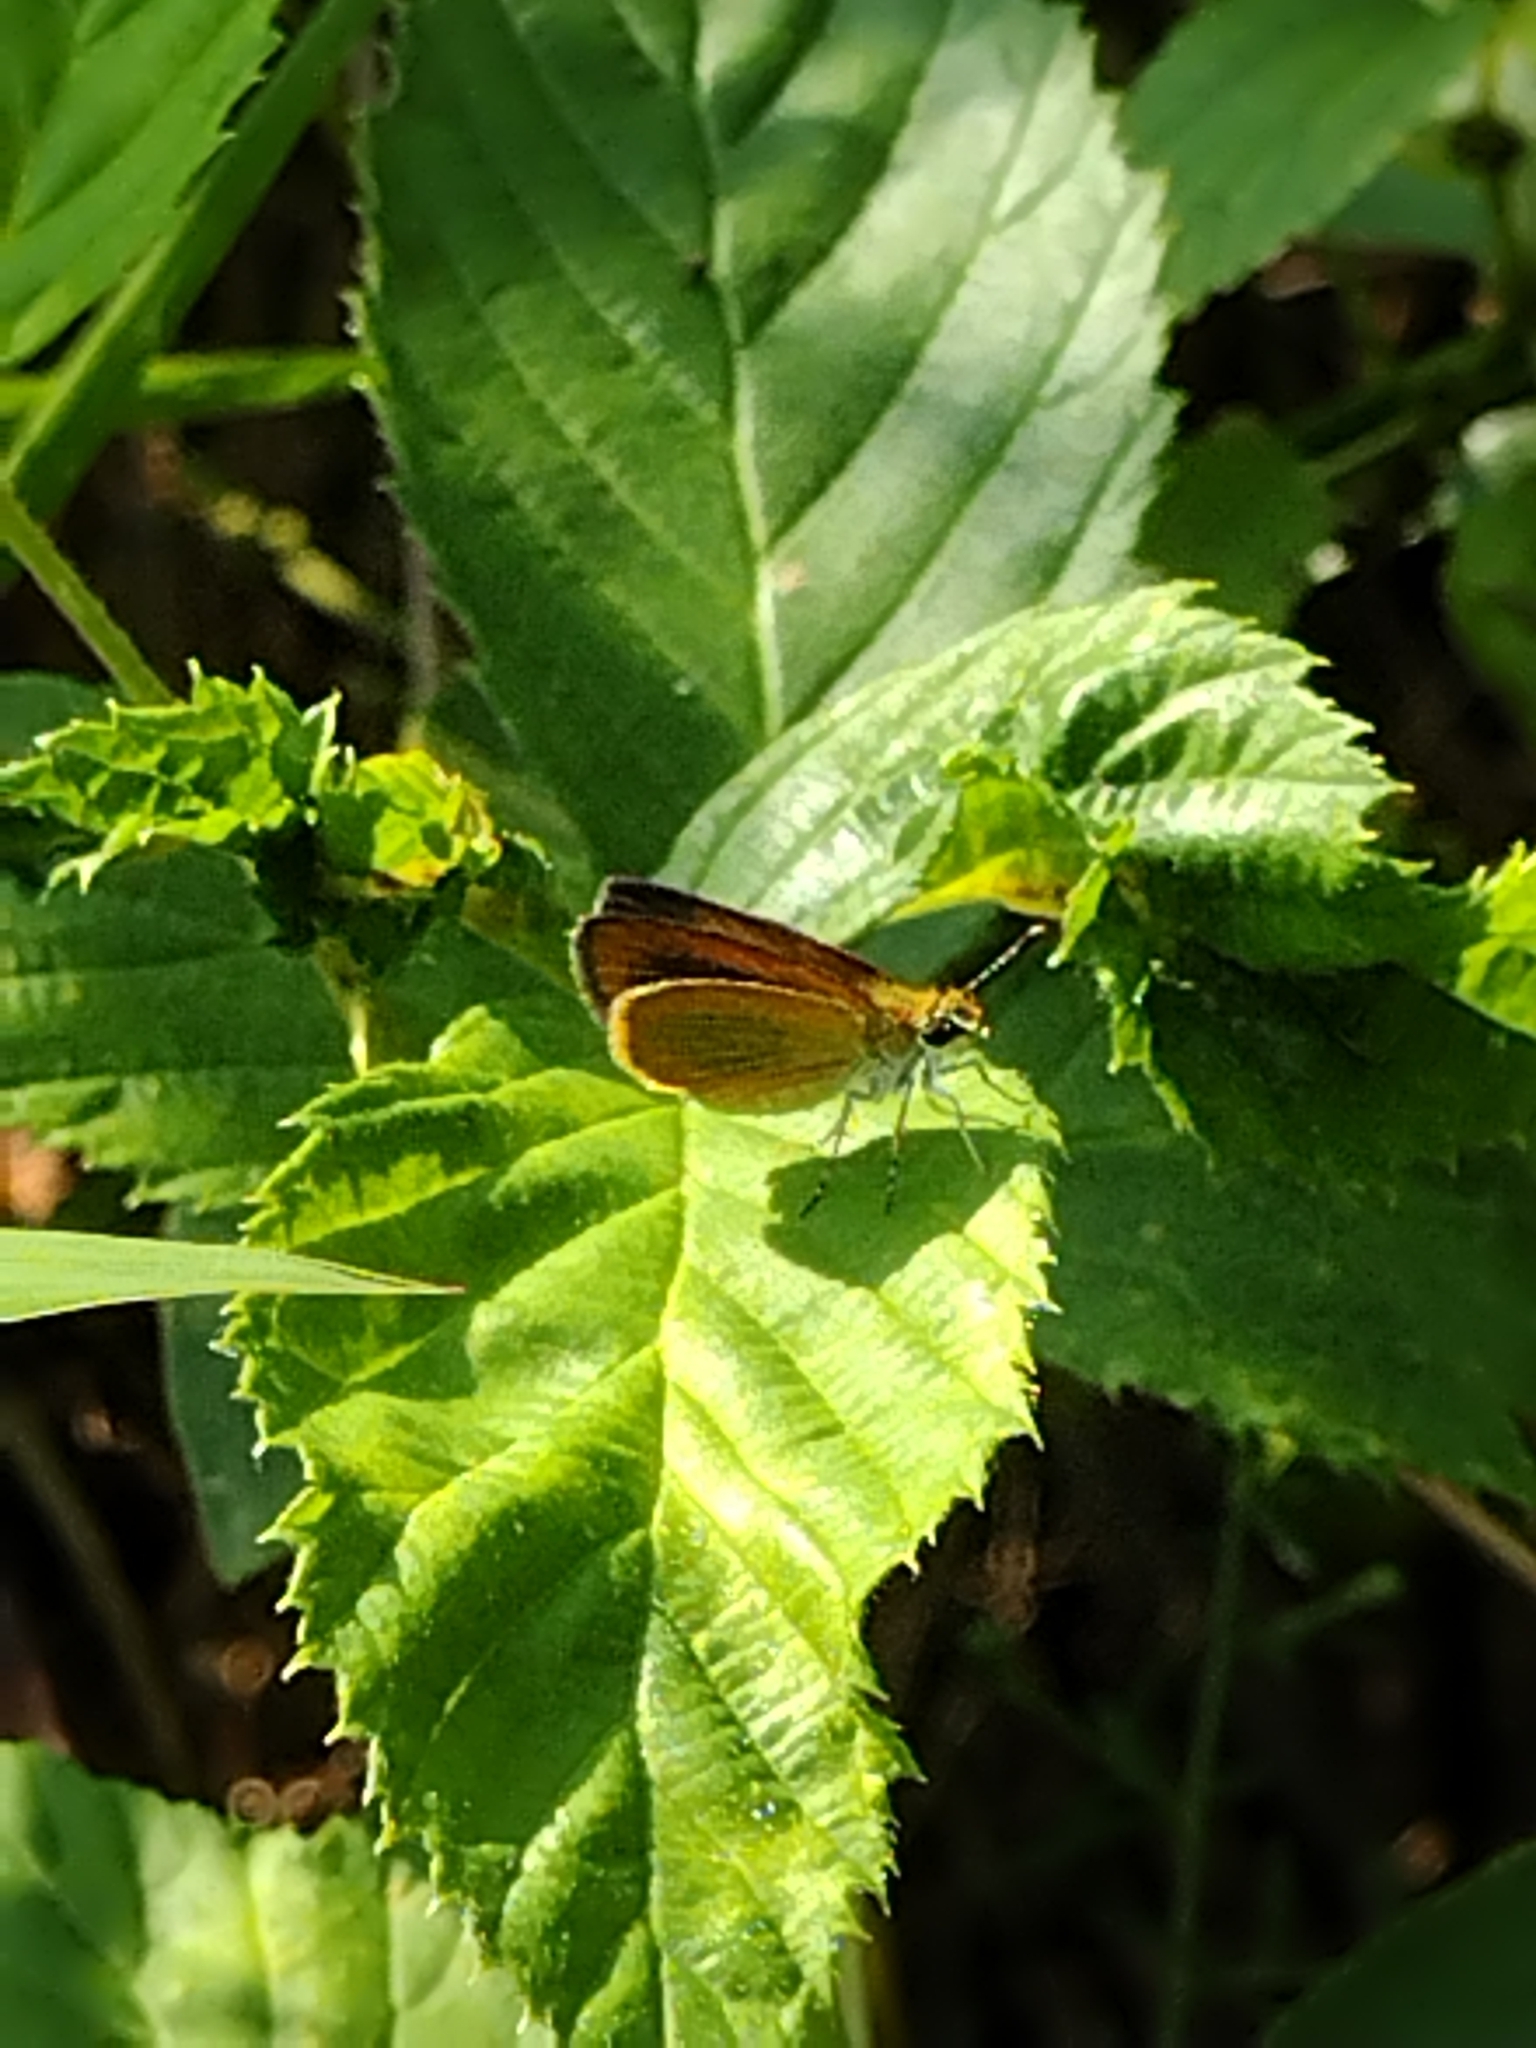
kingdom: Animalia
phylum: Arthropoda
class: Insecta
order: Lepidoptera
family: Hesperiidae
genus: Ancyloxypha
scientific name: Ancyloxypha numitor
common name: Least skipper
